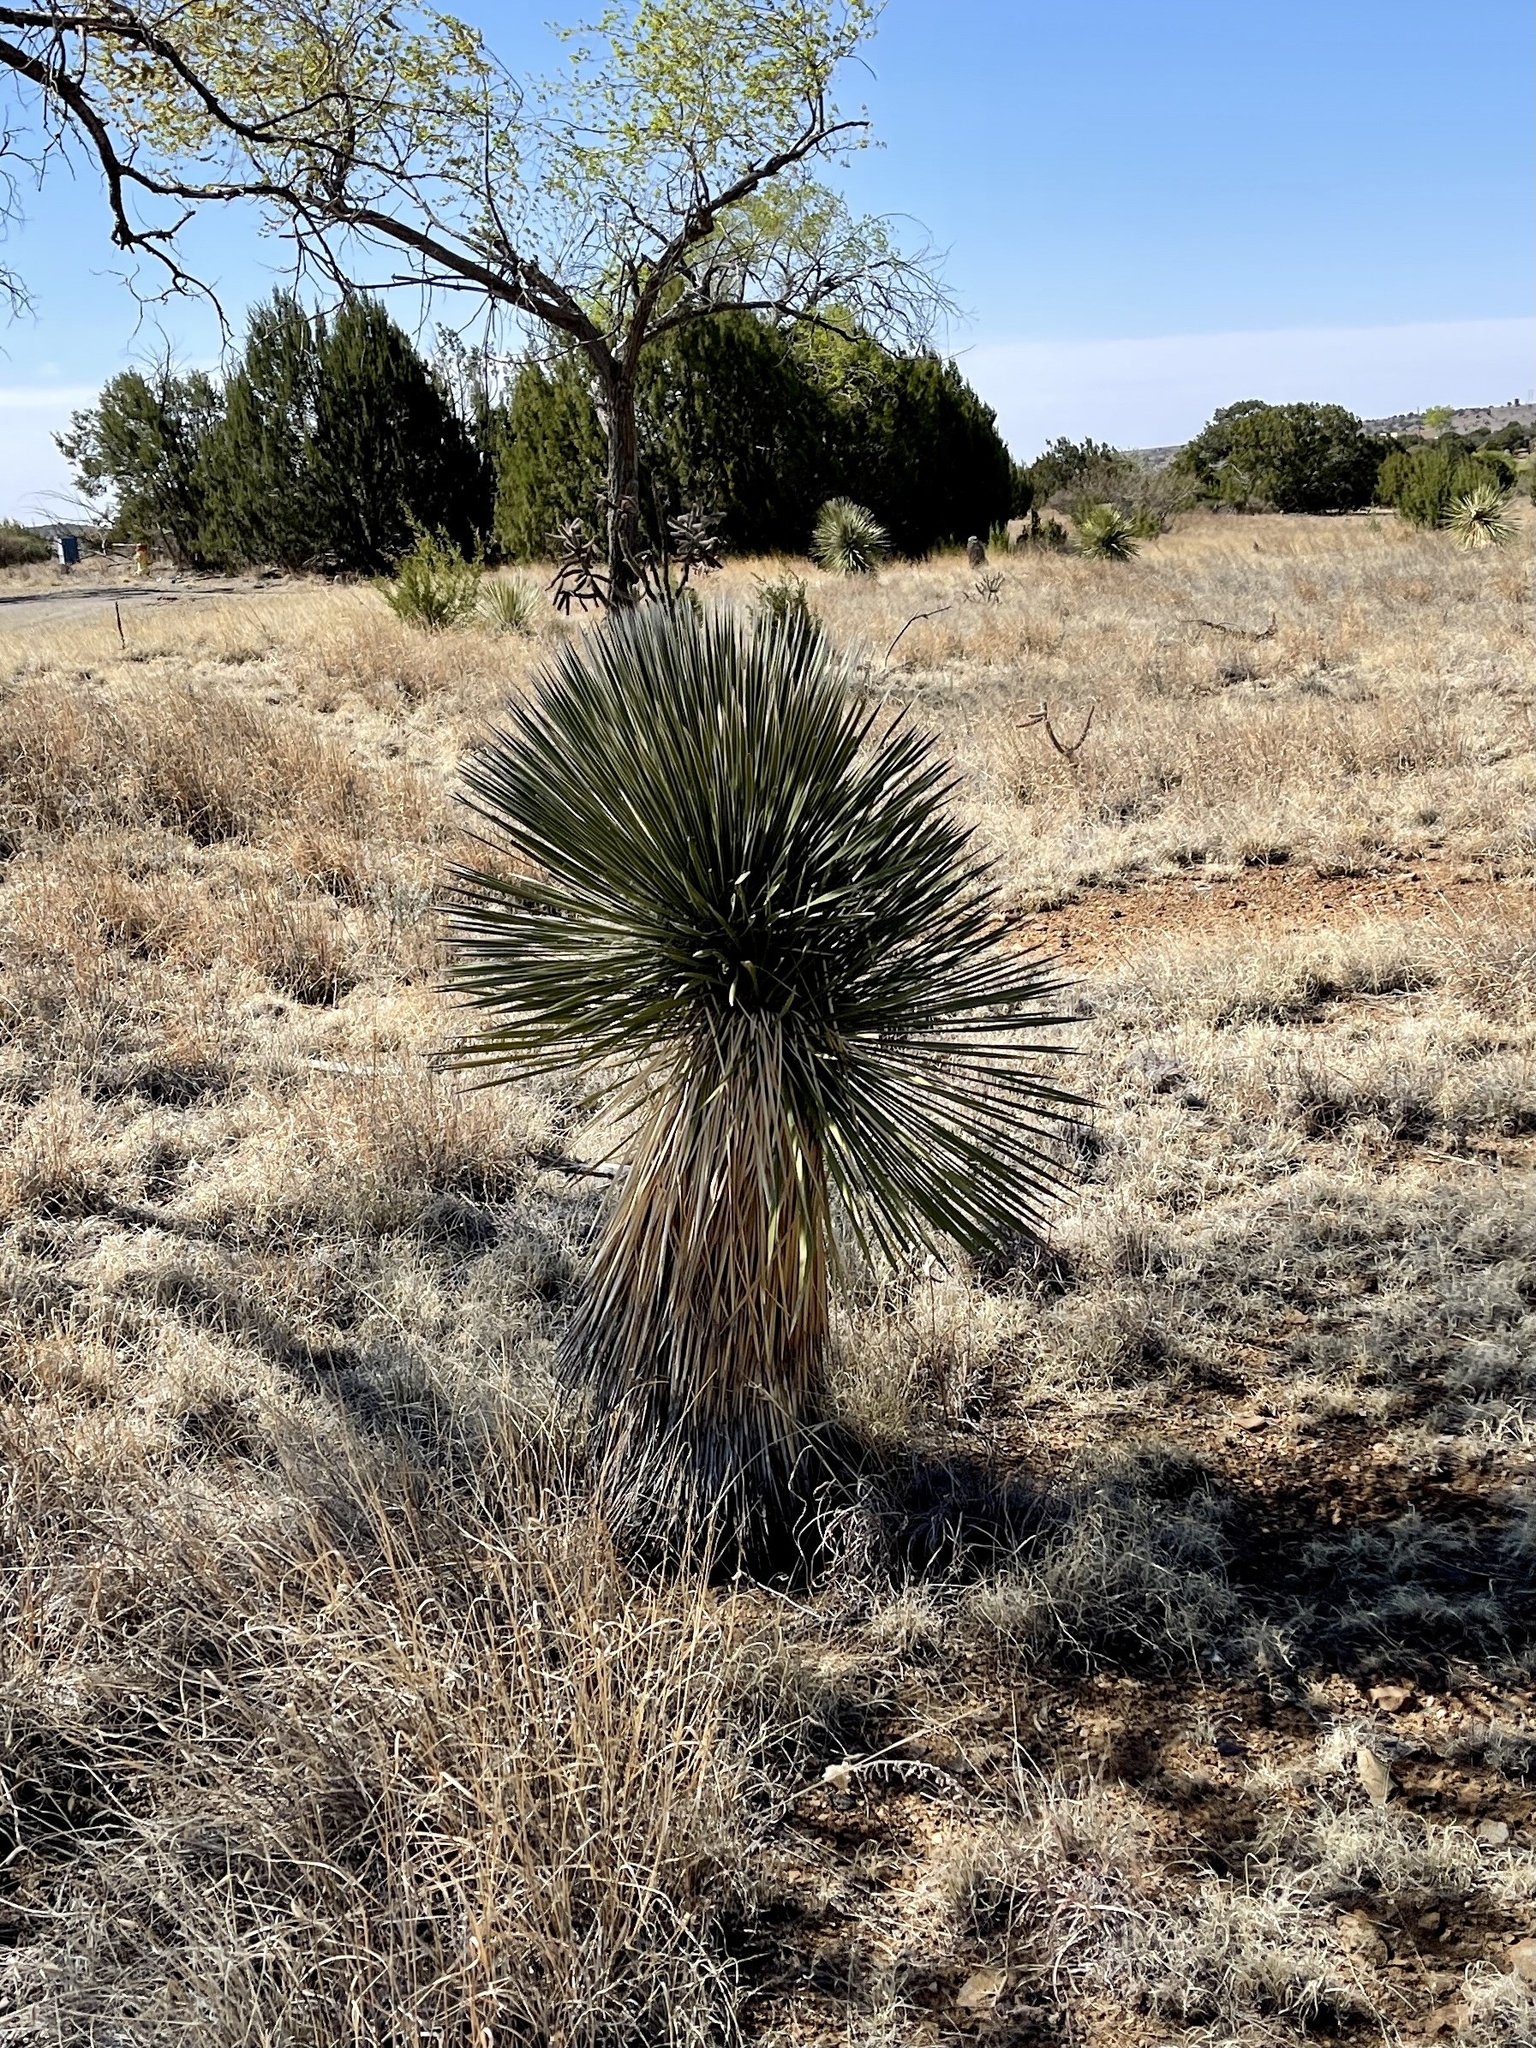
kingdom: Plantae
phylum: Tracheophyta
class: Liliopsida
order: Asparagales
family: Asparagaceae
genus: Yucca
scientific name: Yucca elata
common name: Palmella
